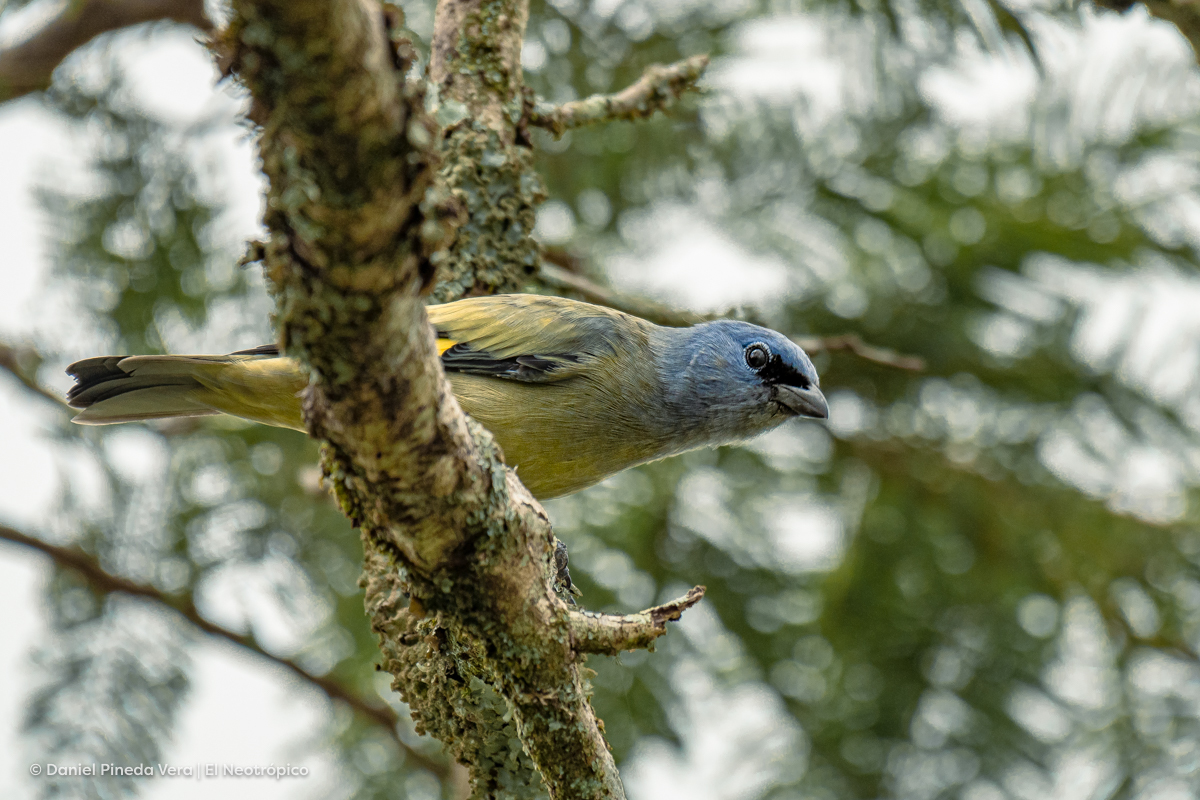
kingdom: Animalia
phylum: Chordata
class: Aves
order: Passeriformes
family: Thraupidae
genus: Thraupis
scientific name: Thraupis abbas
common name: Yellow-winged tanager
